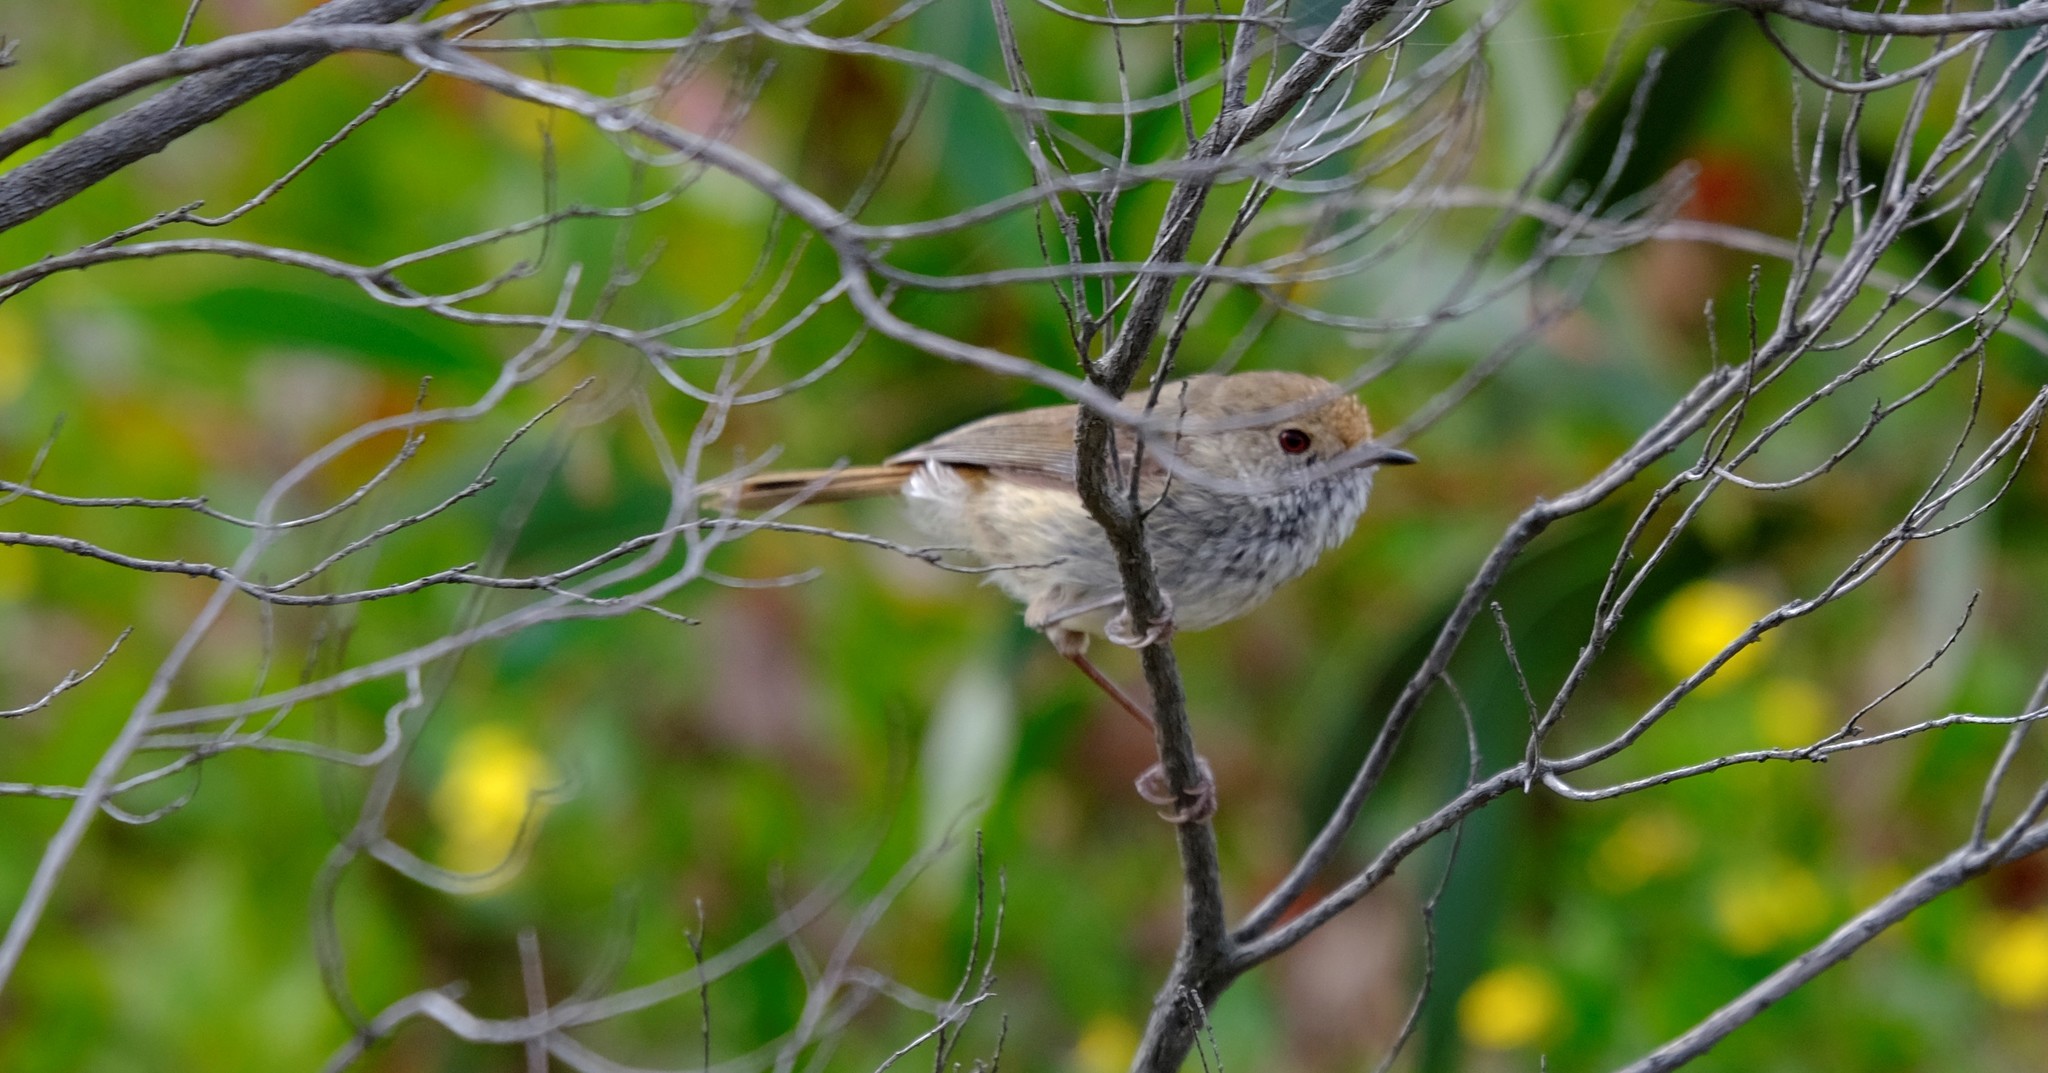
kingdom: Animalia
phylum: Chordata
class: Aves
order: Passeriformes
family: Acanthizidae
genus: Acanthiza
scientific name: Acanthiza pusilla
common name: Brown thornbill
